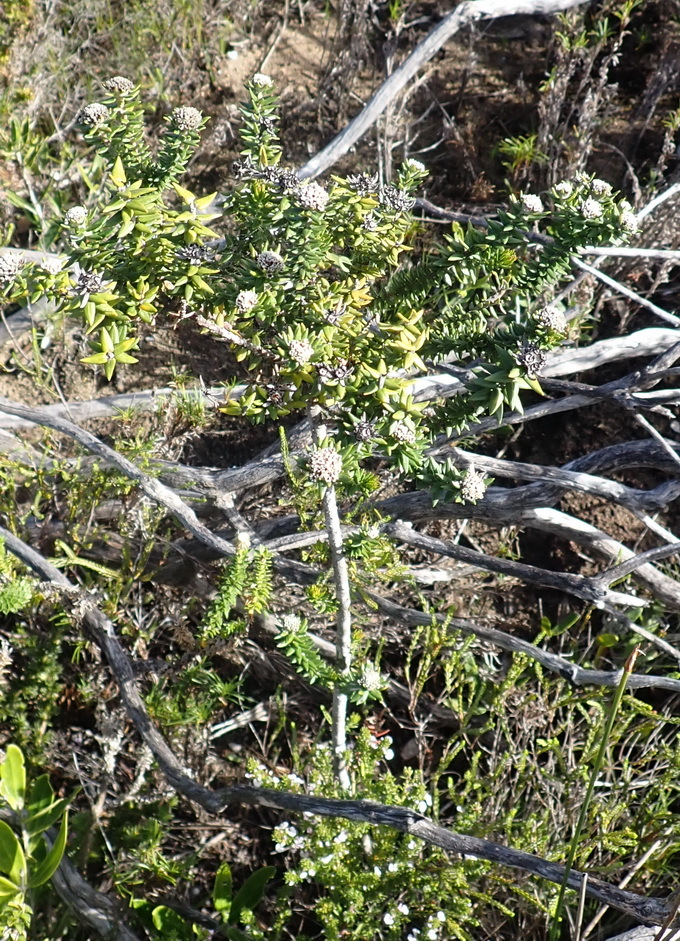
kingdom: Plantae
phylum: Tracheophyta
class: Magnoliopsida
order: Rosales
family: Rhamnaceae
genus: Phylica
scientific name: Phylica litoralis
